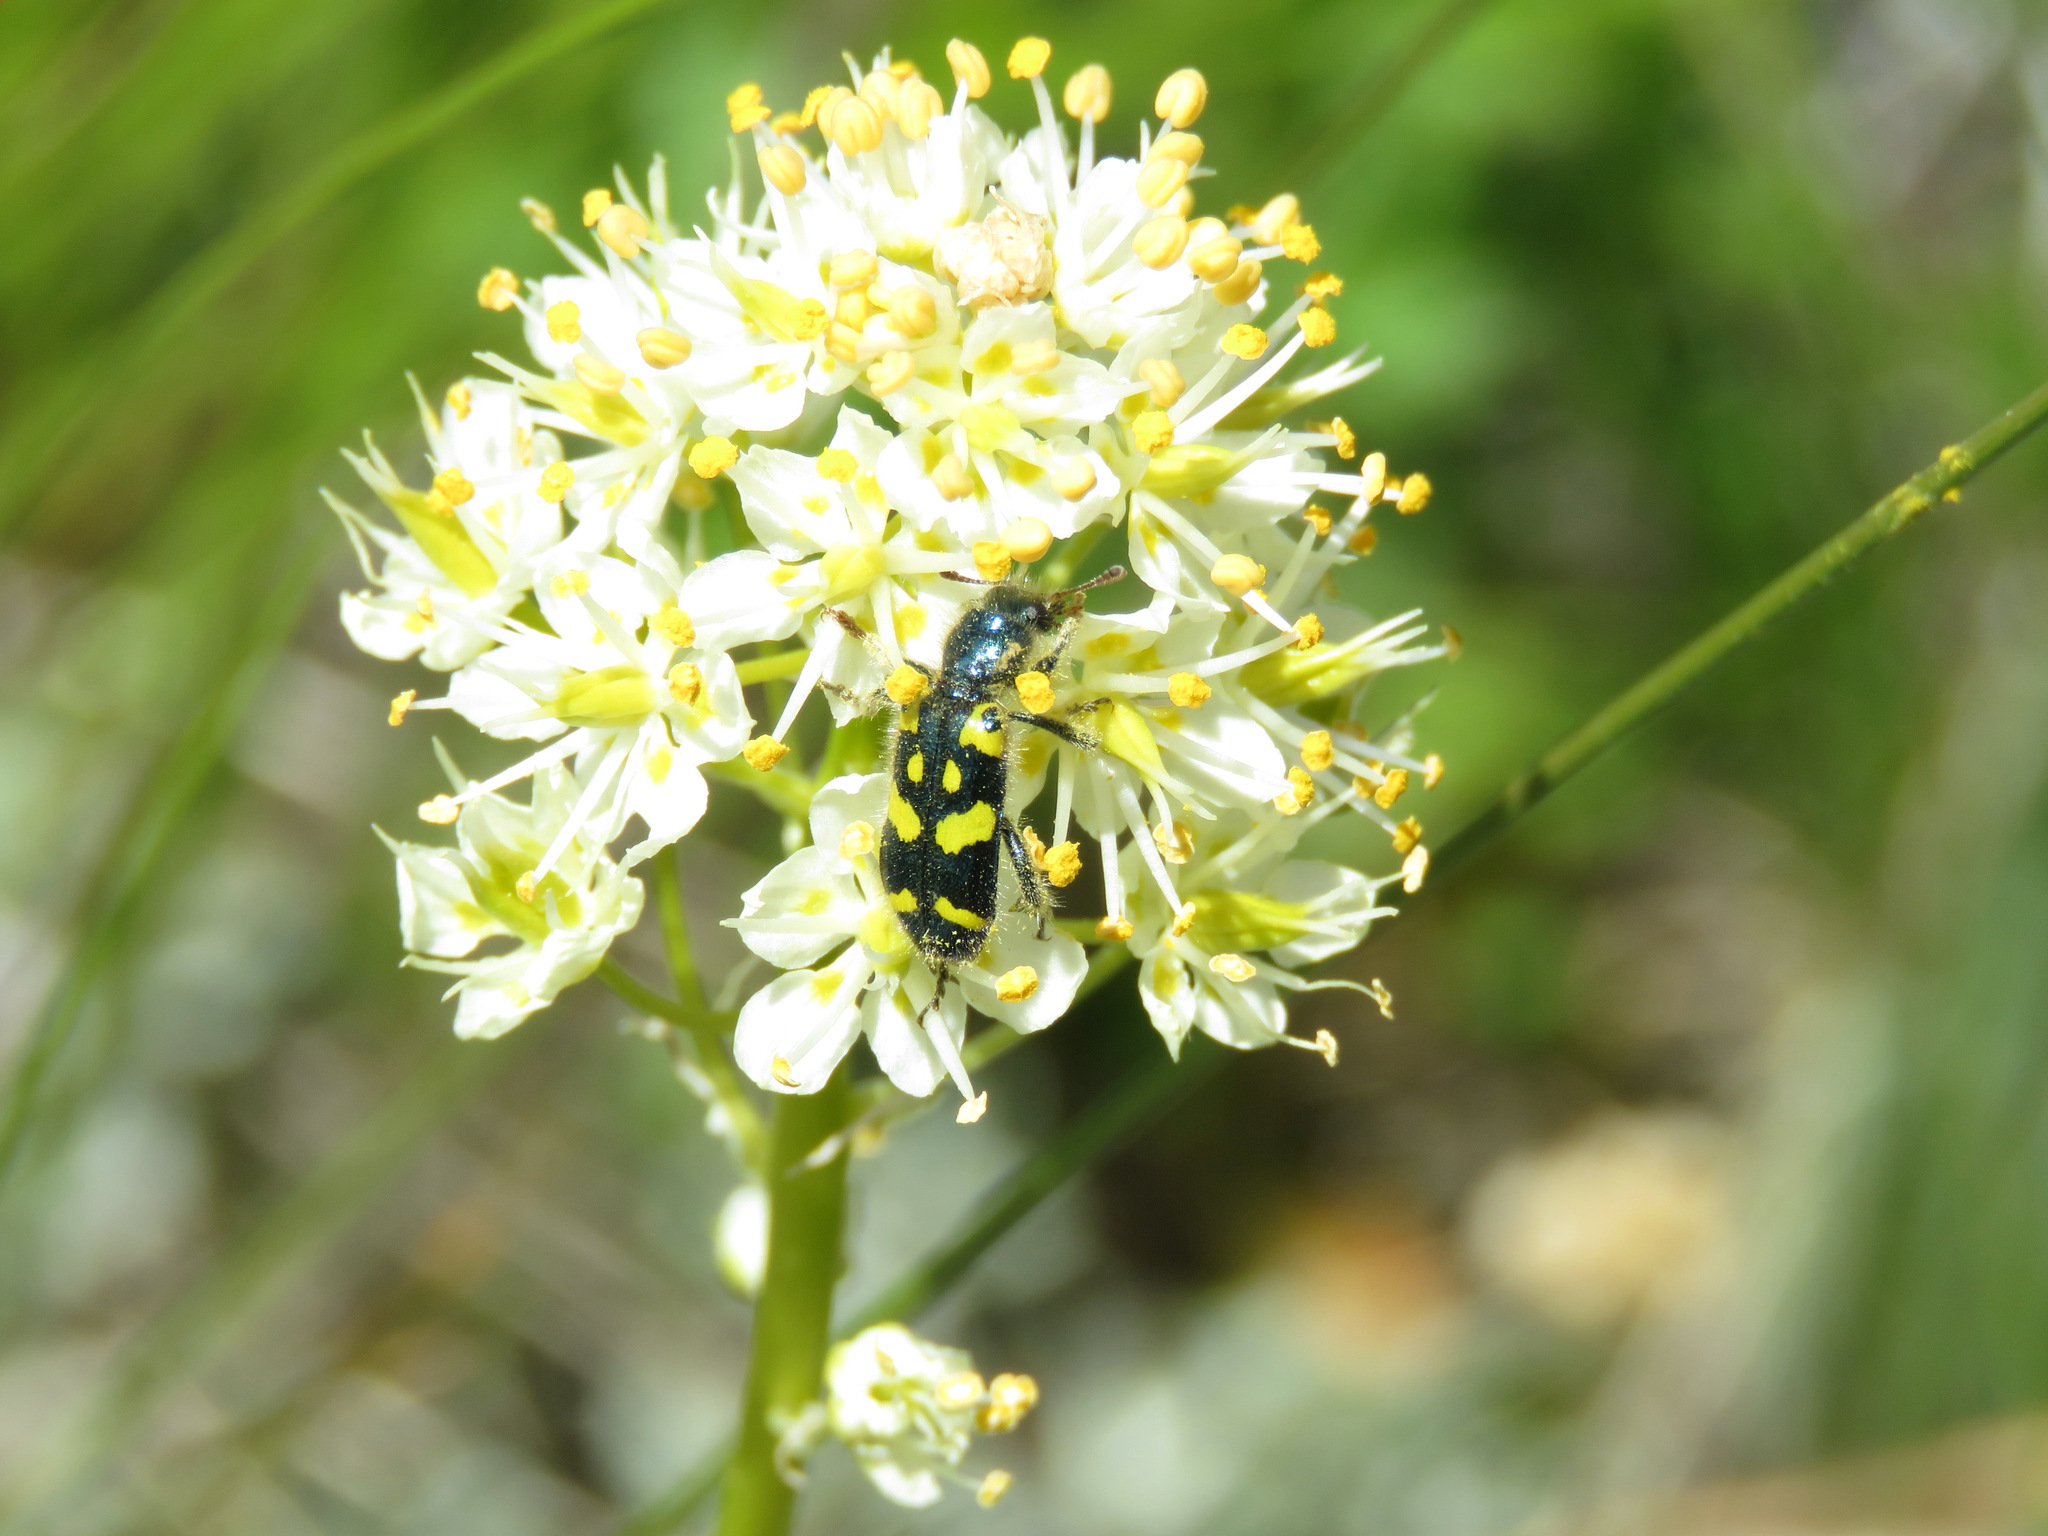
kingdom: Animalia
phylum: Arthropoda
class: Insecta
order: Coleoptera
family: Cleridae
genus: Trichodes
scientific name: Trichodes ornatus
